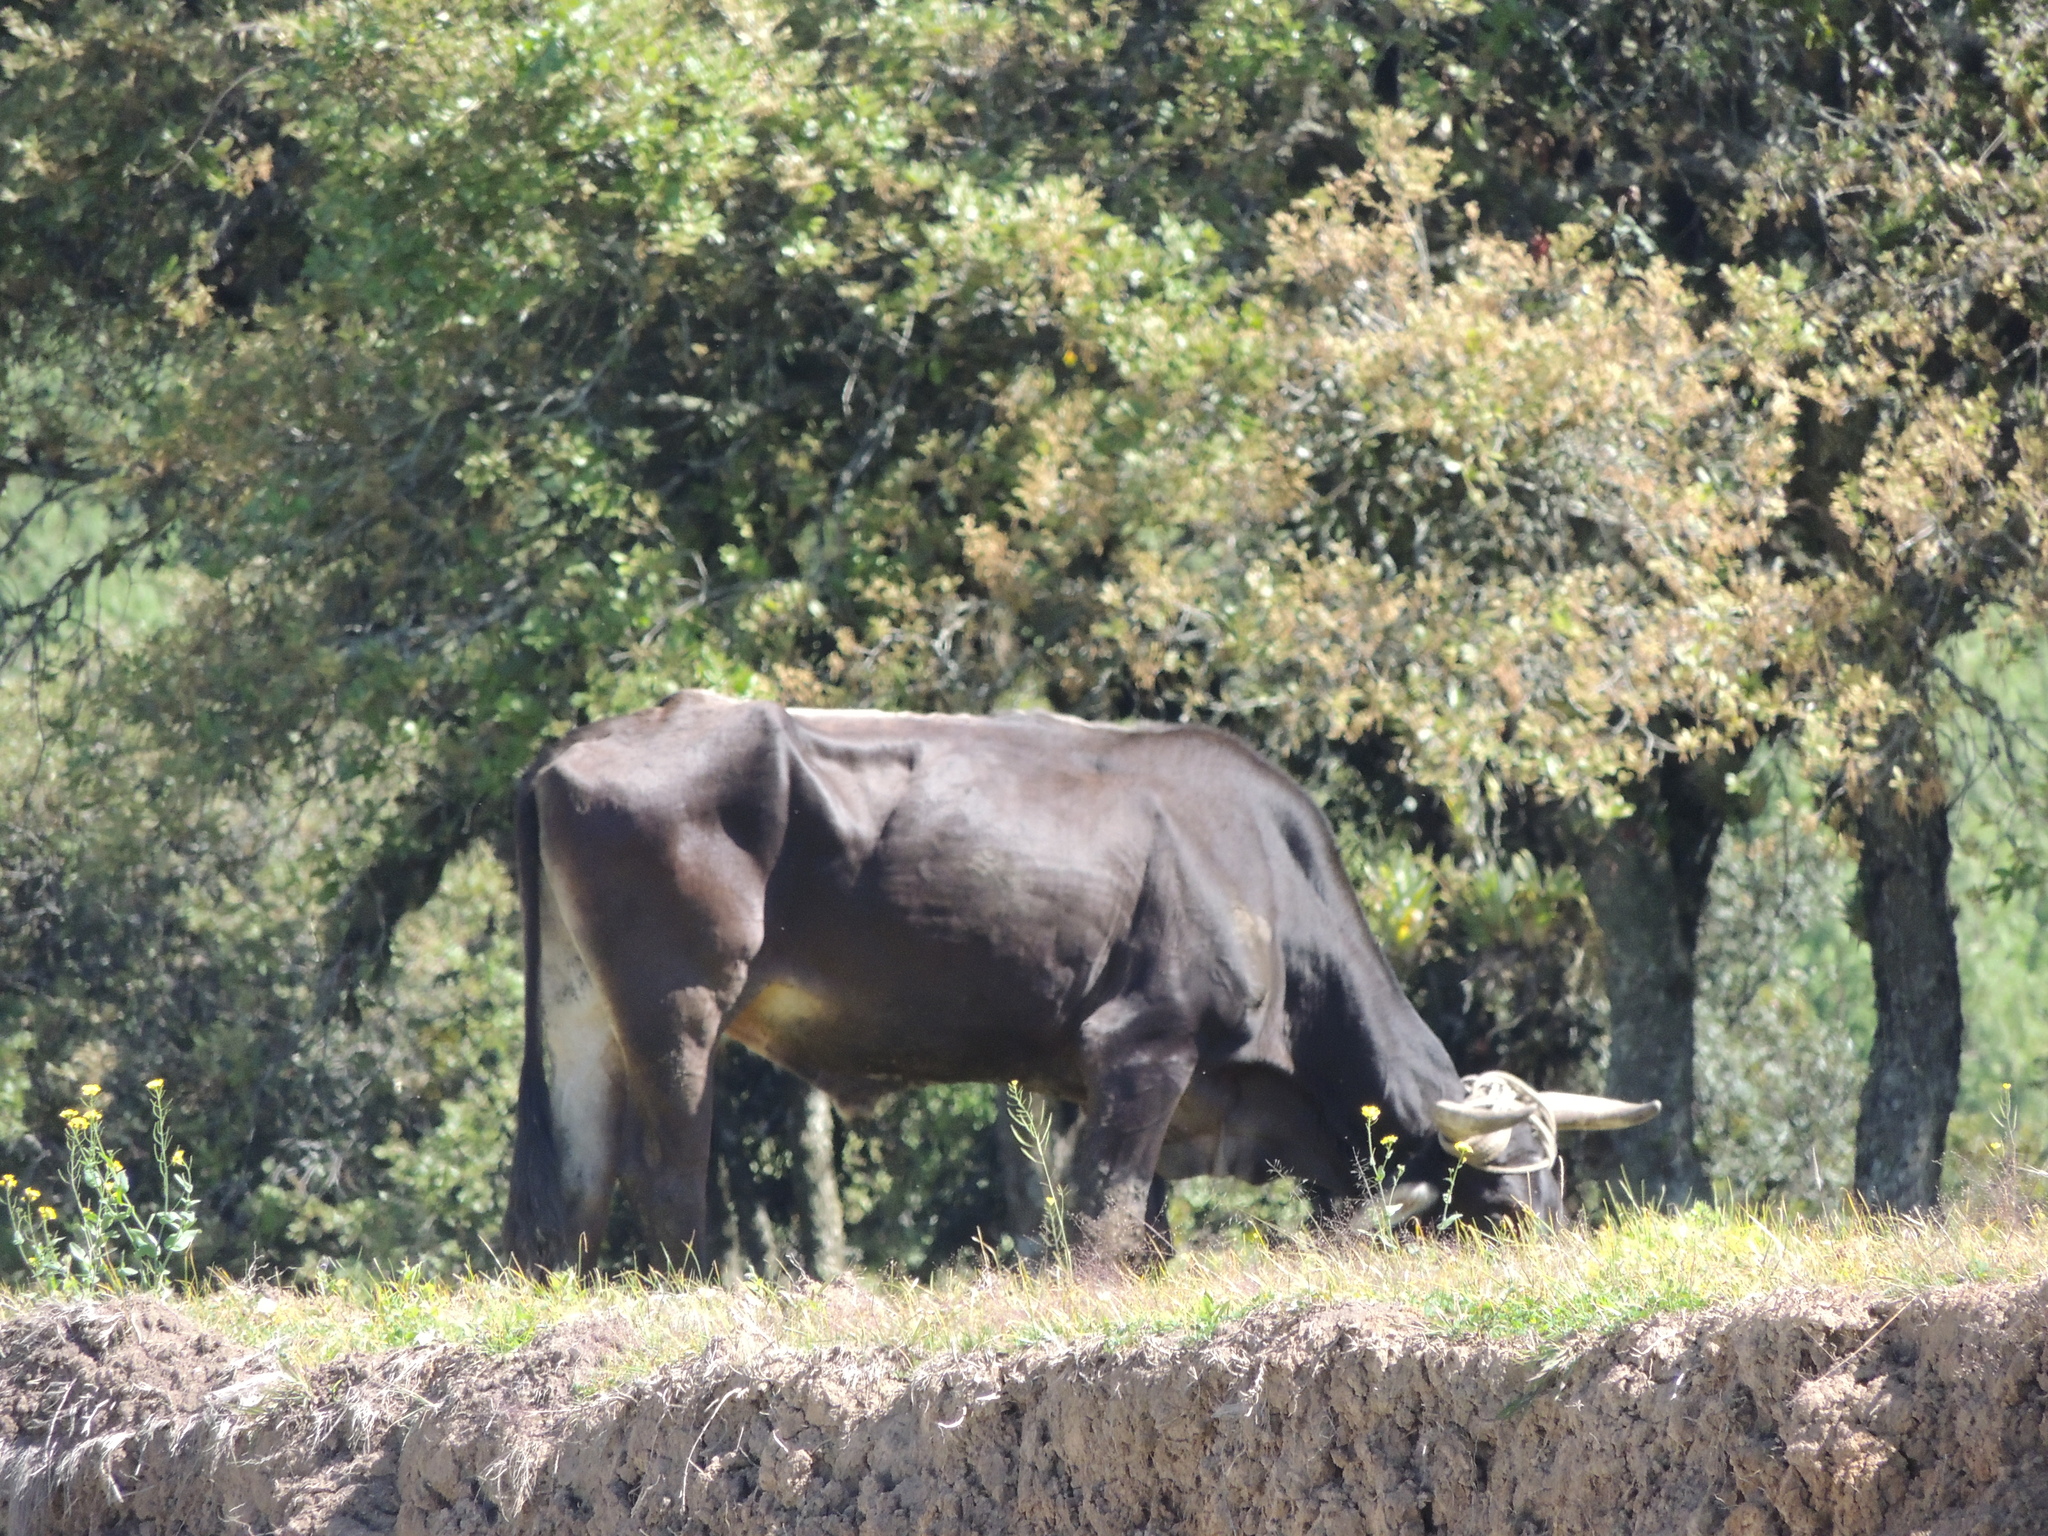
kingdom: Animalia
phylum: Chordata
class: Mammalia
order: Artiodactyla
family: Bovidae
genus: Bos
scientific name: Bos taurus
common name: Domesticated cattle
